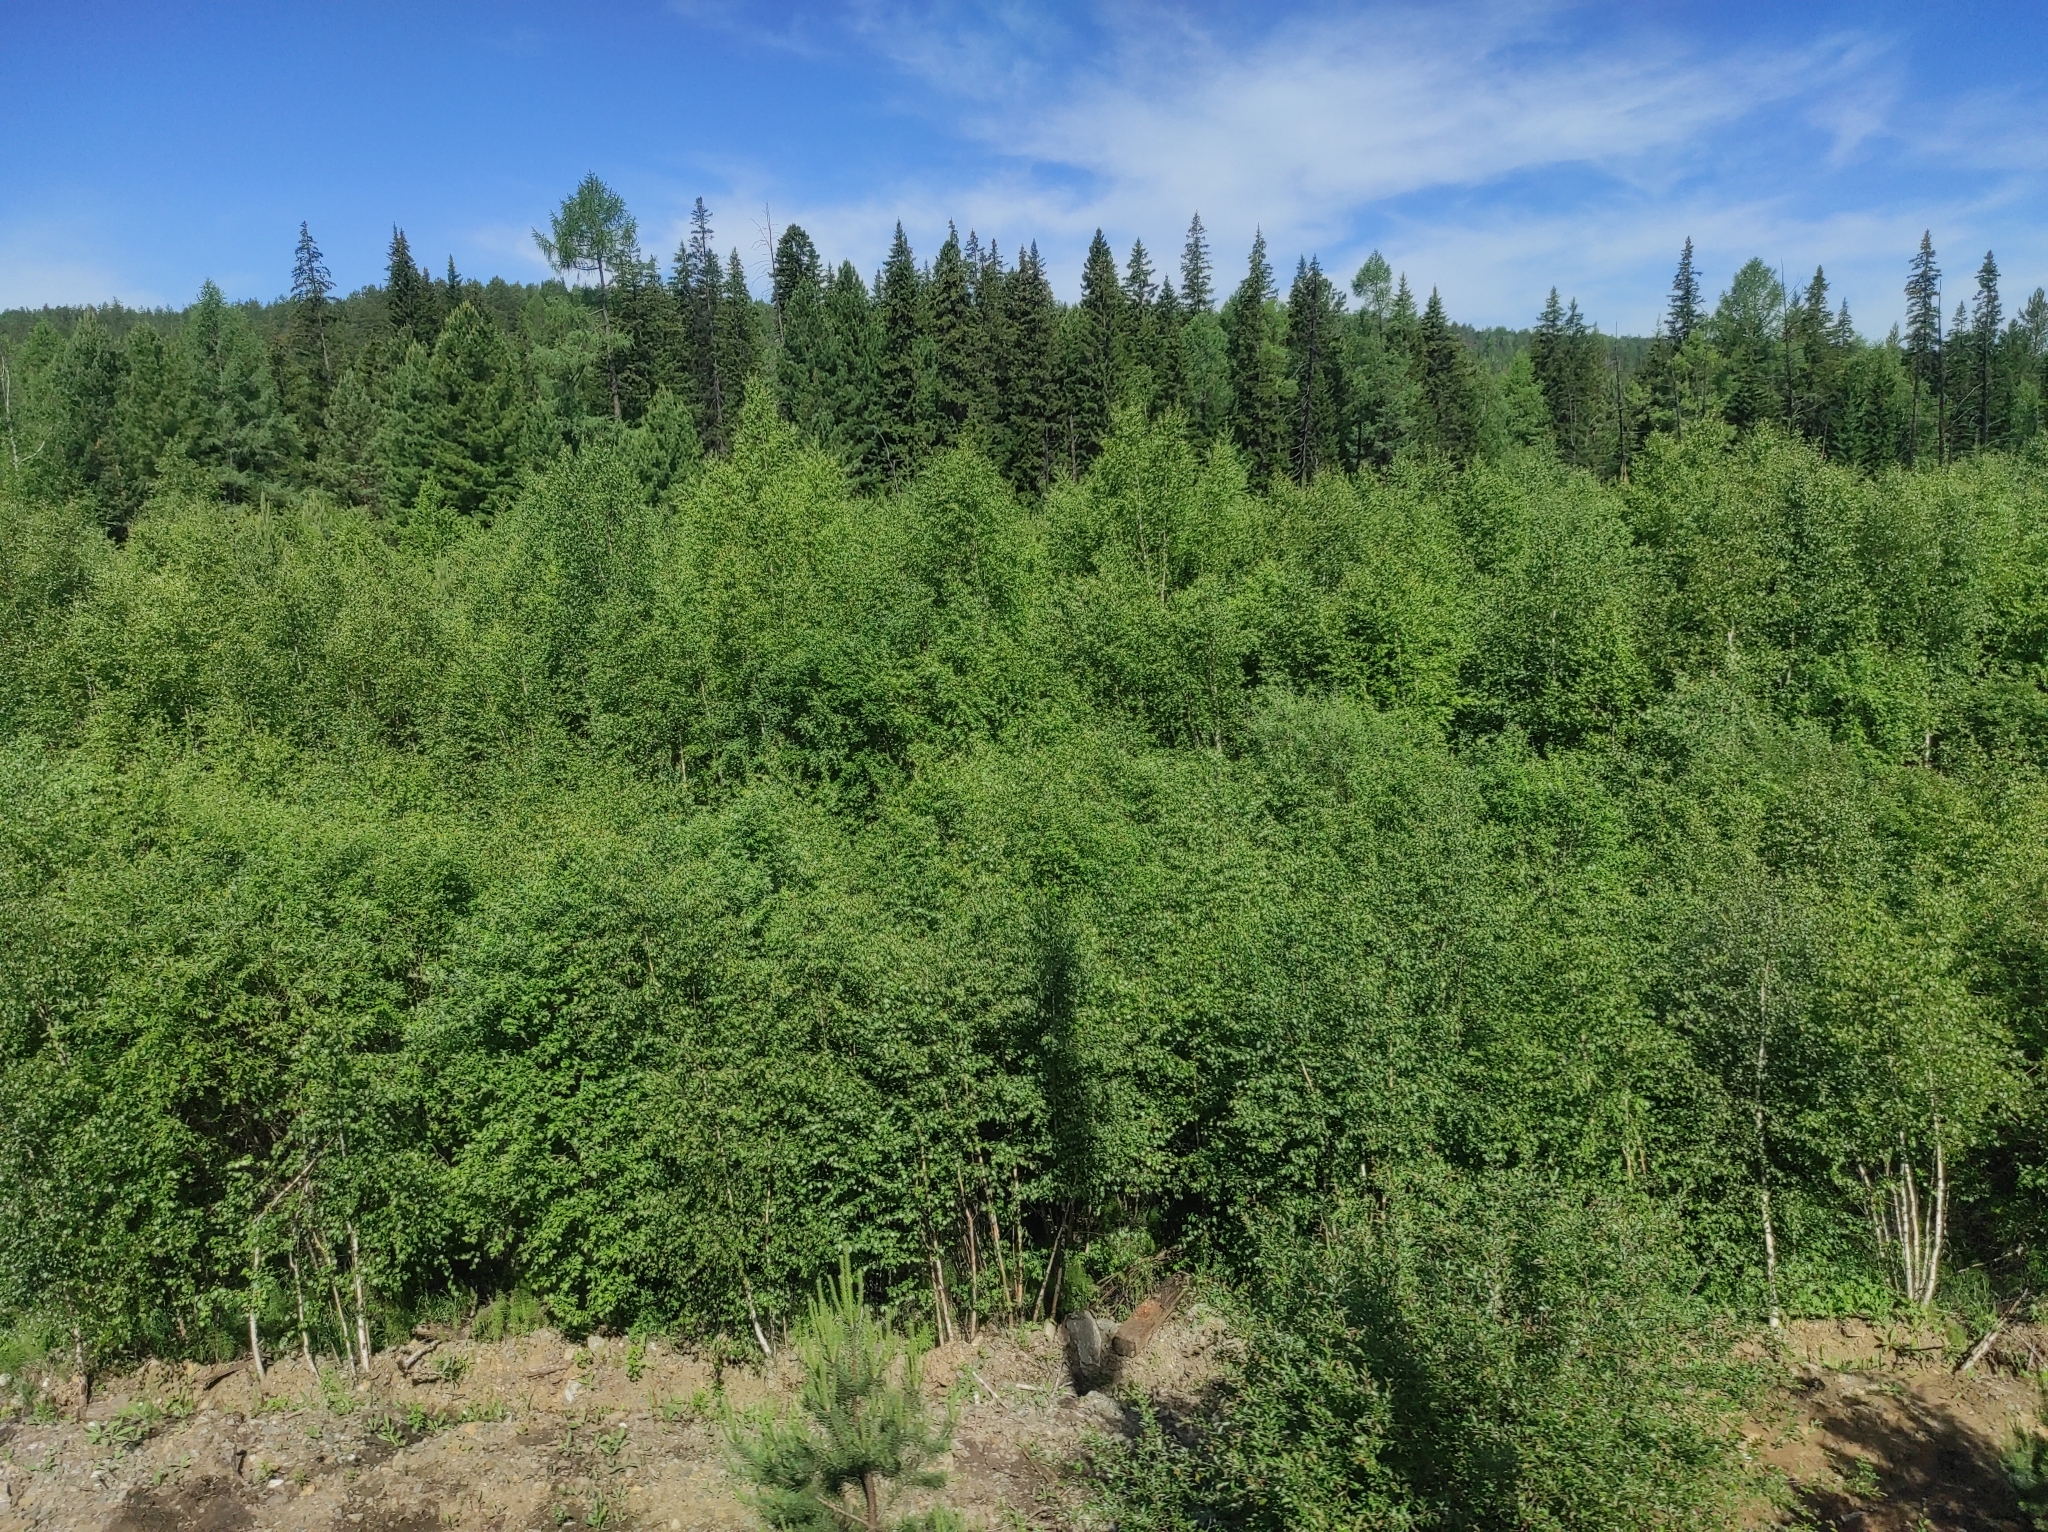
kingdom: Plantae
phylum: Tracheophyta
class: Pinopsida
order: Pinales
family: Pinaceae
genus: Picea
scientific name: Picea obovata
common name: Siberian spruce
